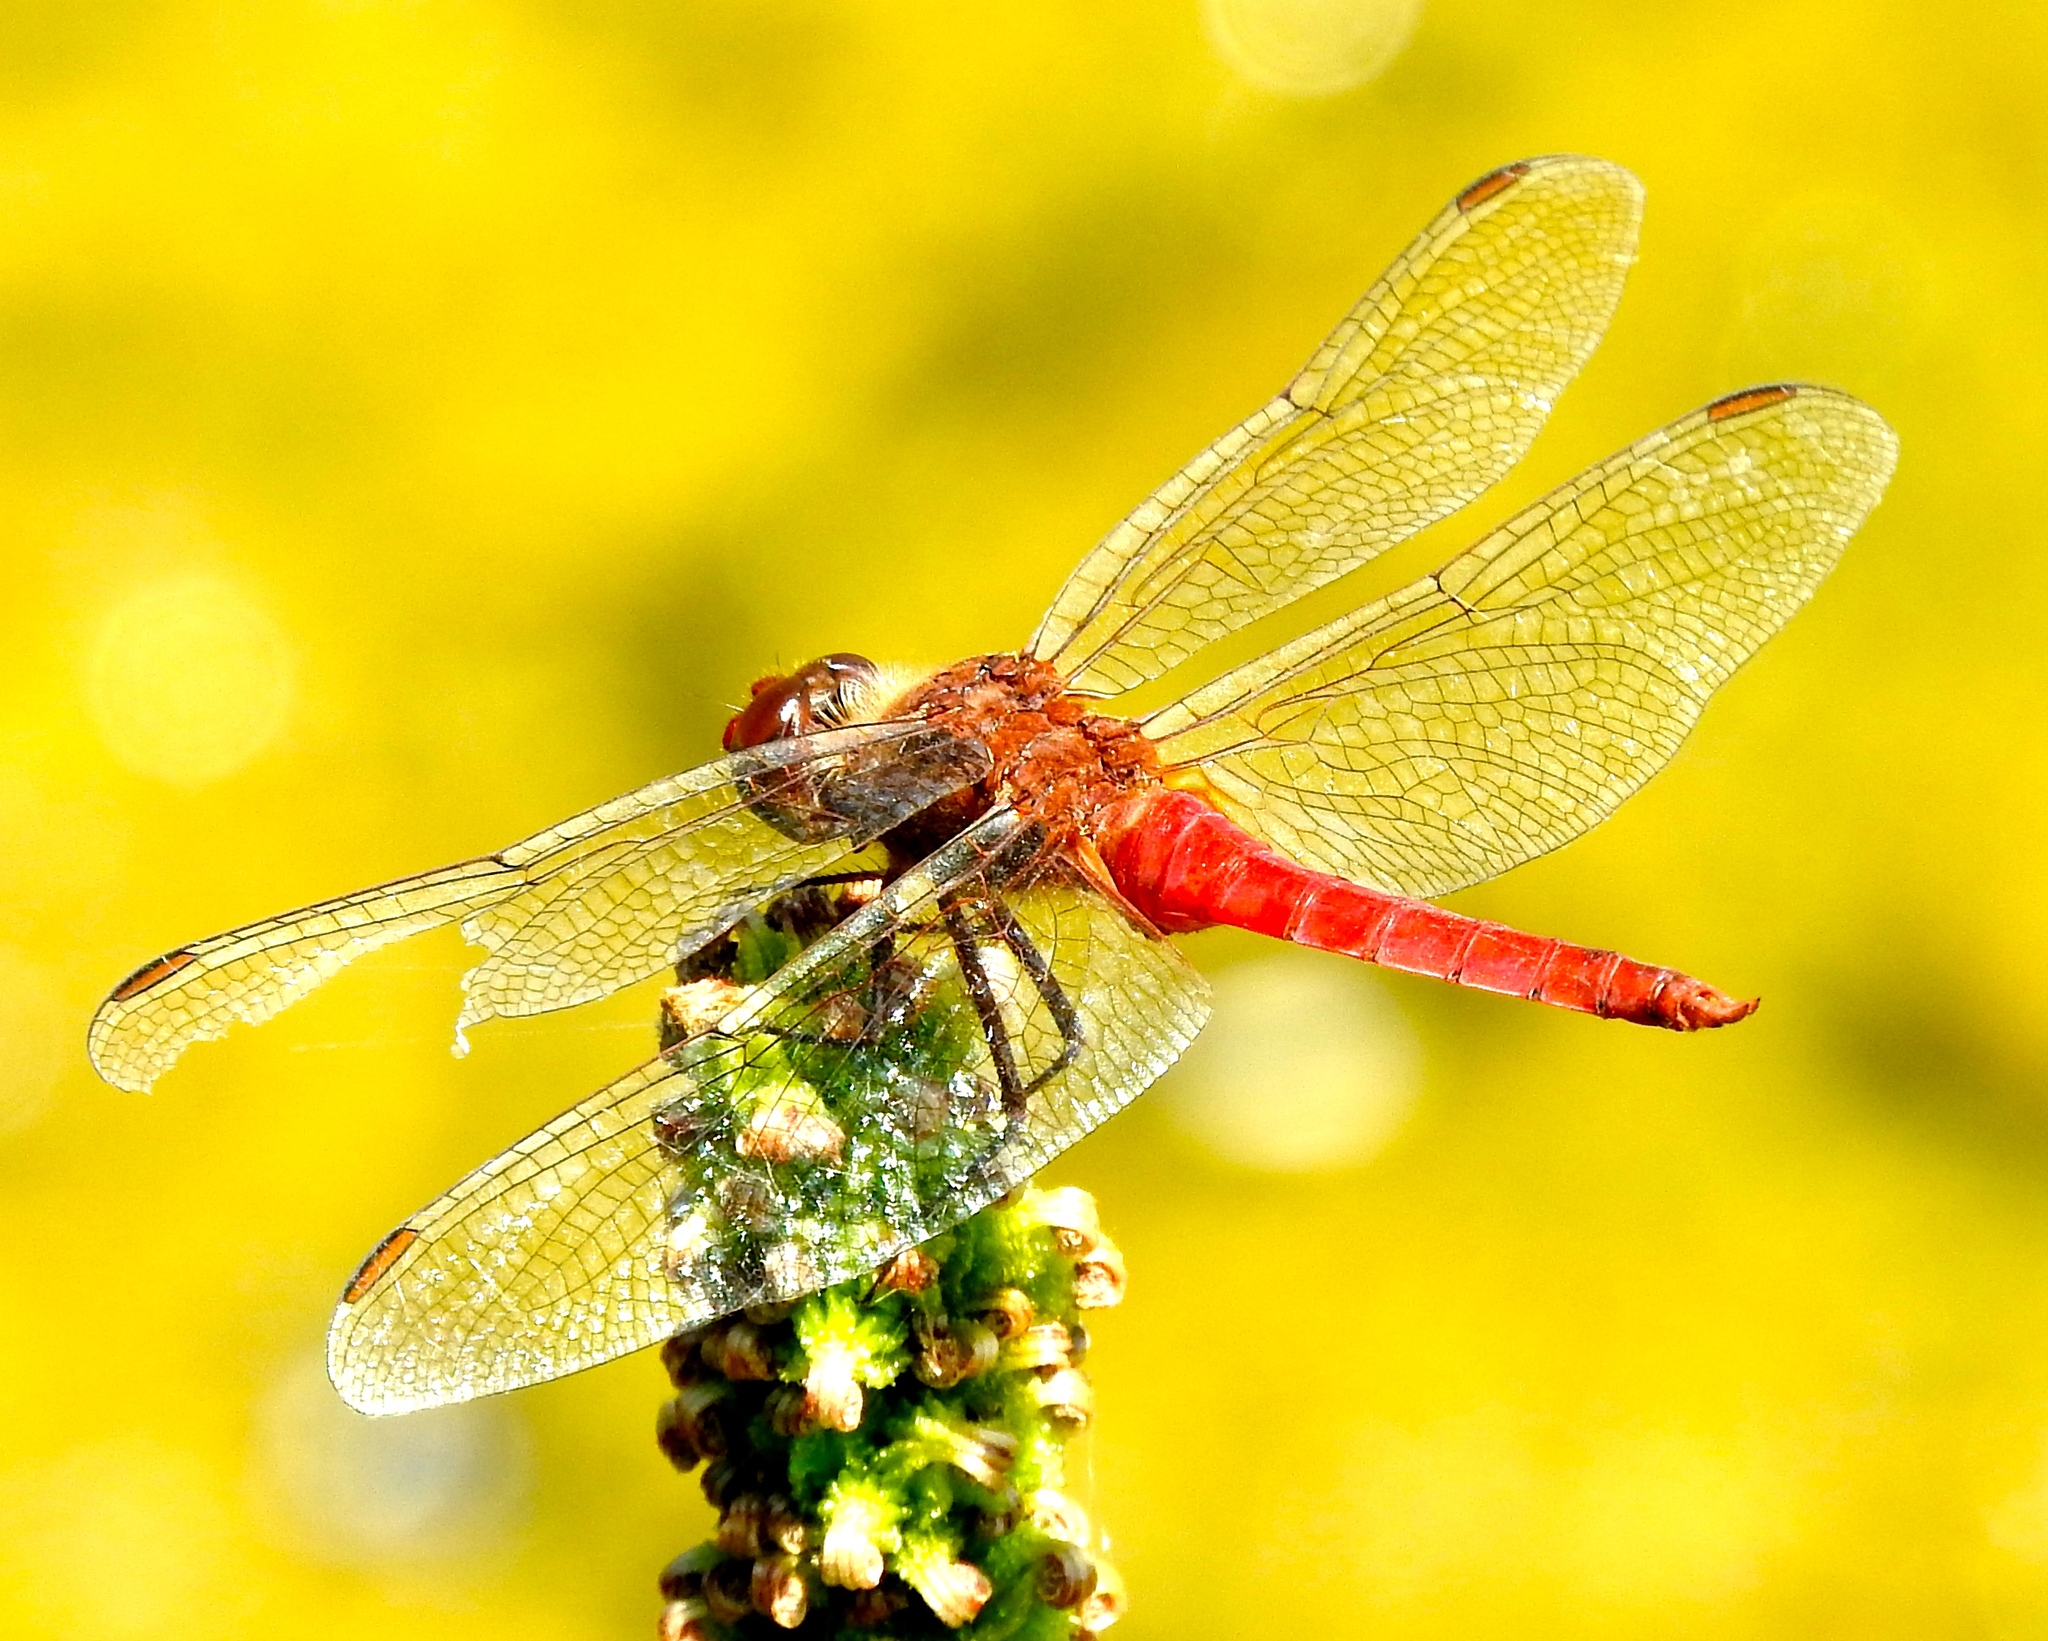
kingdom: Animalia
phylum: Arthropoda
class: Insecta
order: Odonata
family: Libellulidae
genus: Brachymesia
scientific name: Brachymesia furcata
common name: Red-taled pennant
